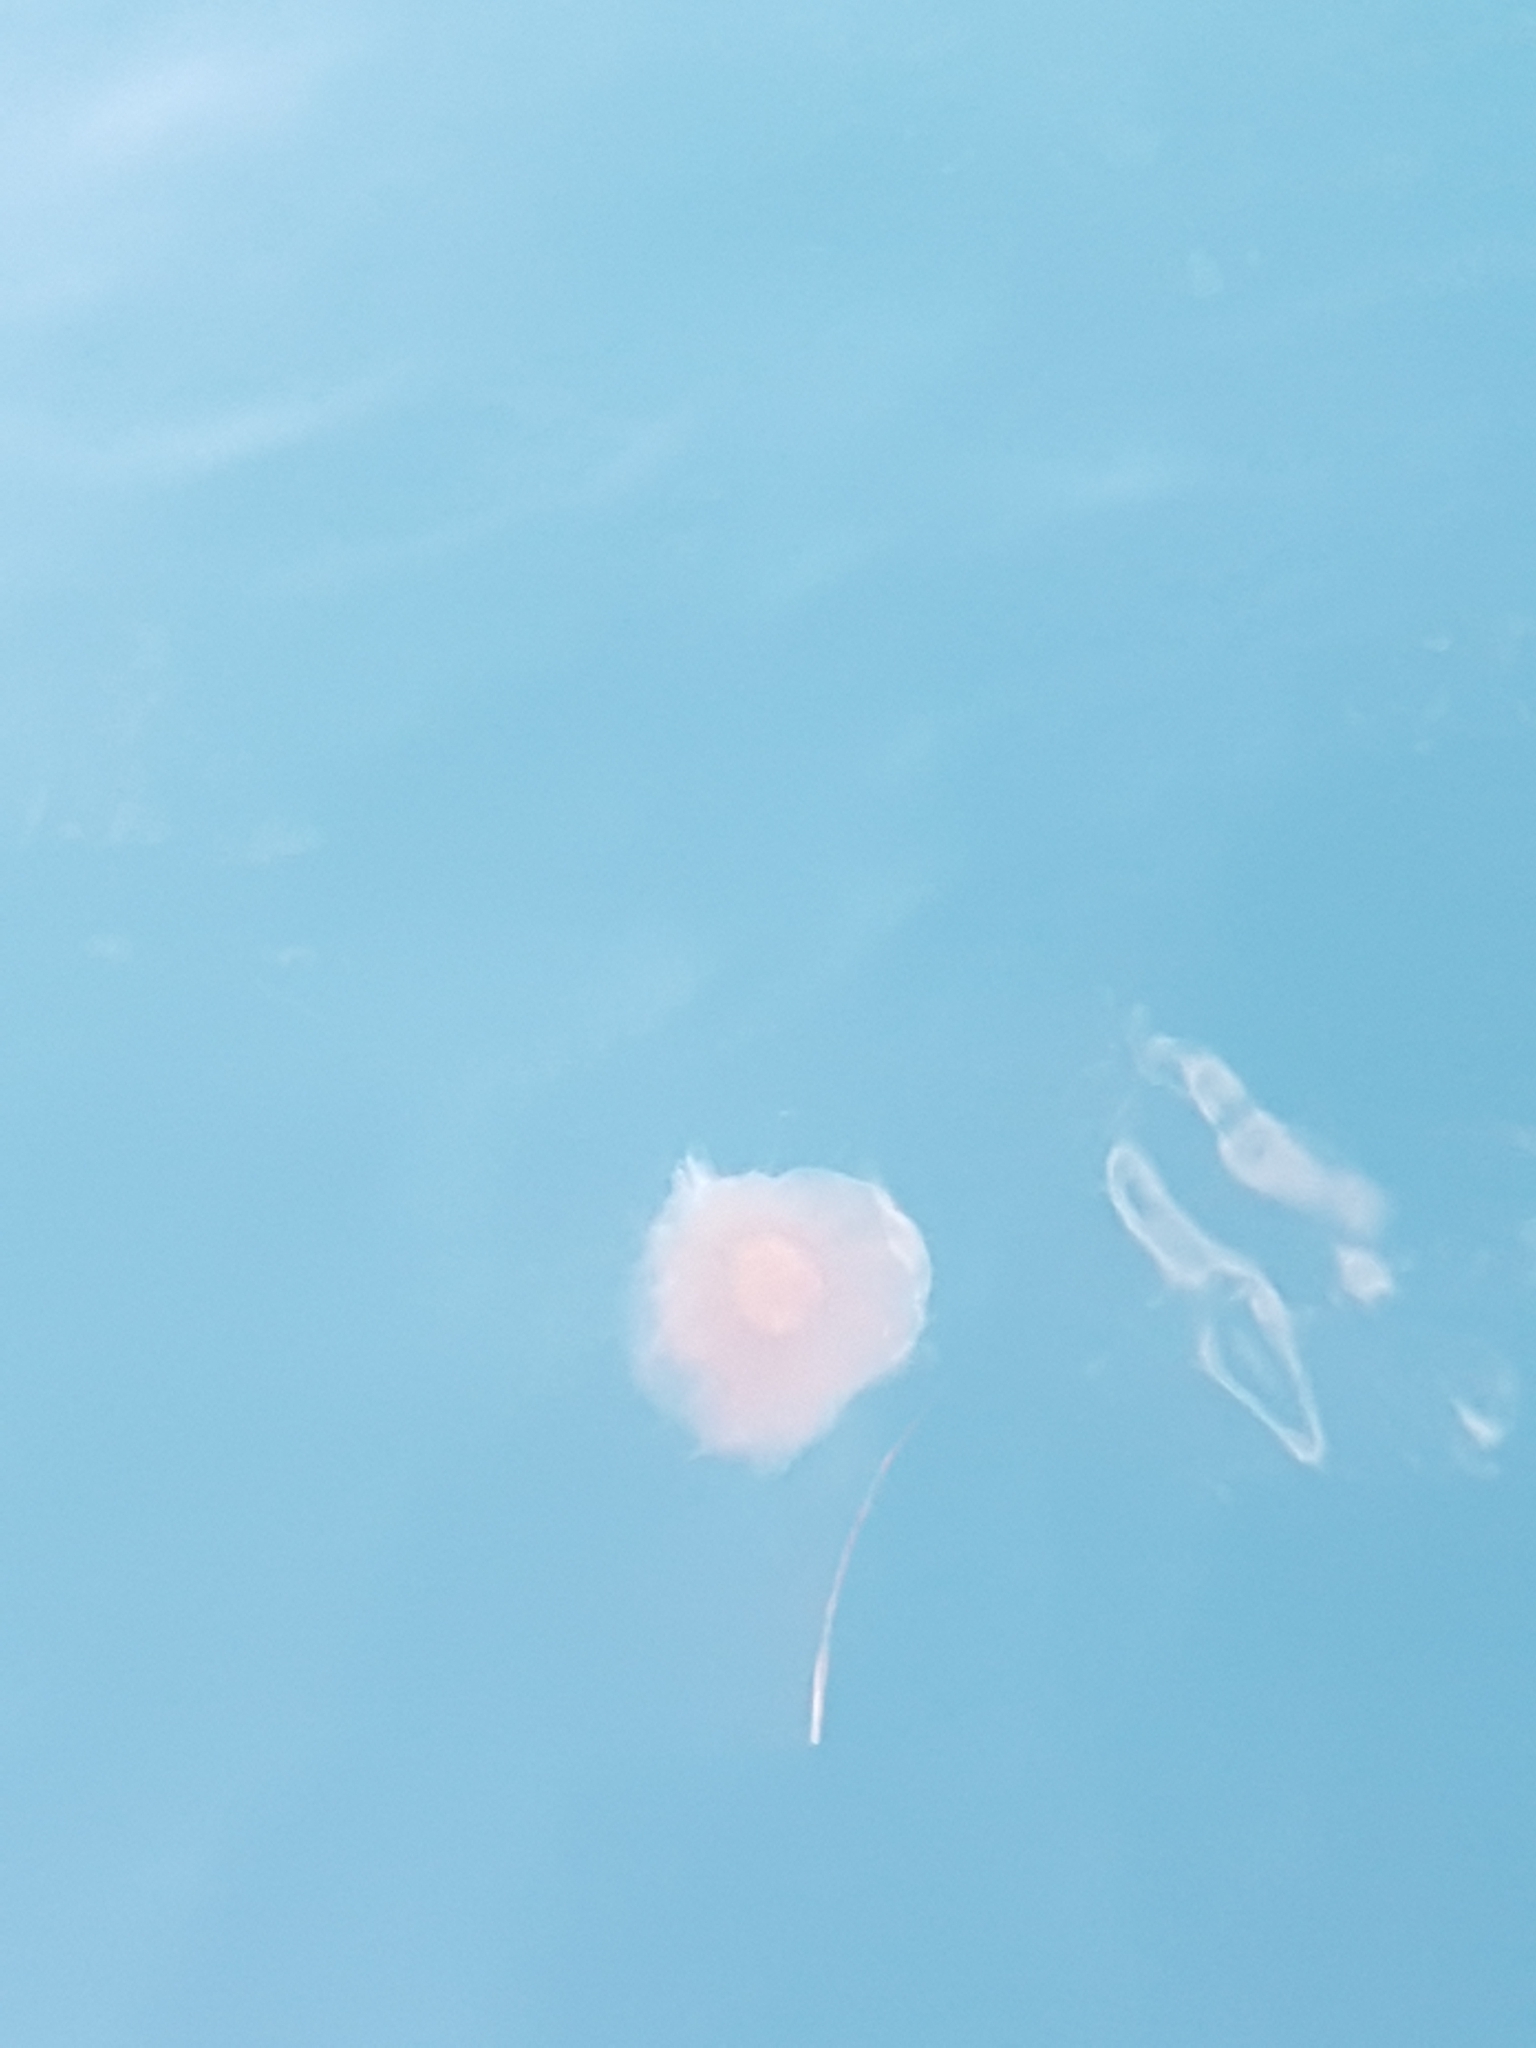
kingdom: Animalia
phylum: Cnidaria
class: Scyphozoa
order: Semaeostomeae
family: Cyaneidae
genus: Cyanea
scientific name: Cyanea capillata
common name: Lion's mane jellyfish
